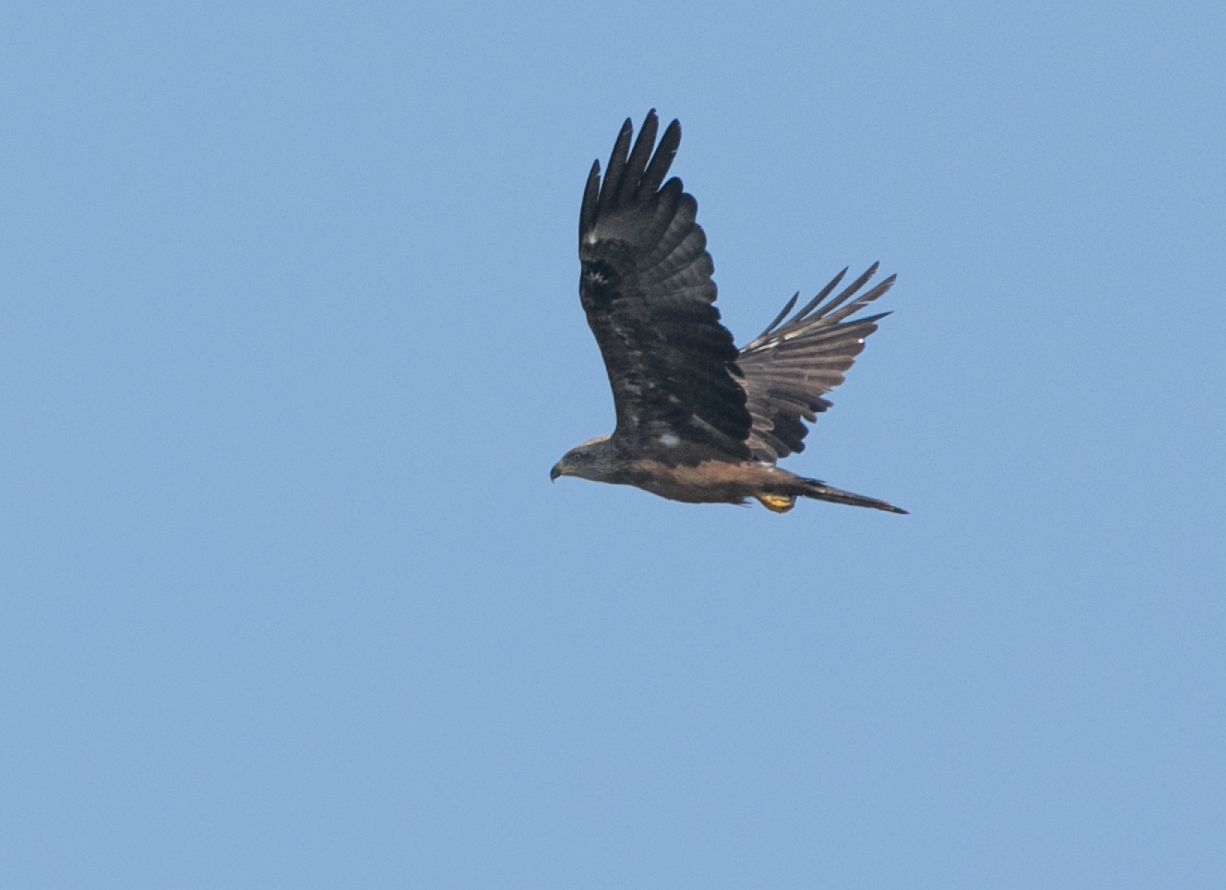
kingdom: Animalia
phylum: Chordata
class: Aves
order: Accipitriformes
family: Accipitridae
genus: Milvus
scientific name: Milvus migrans
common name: Black kite
